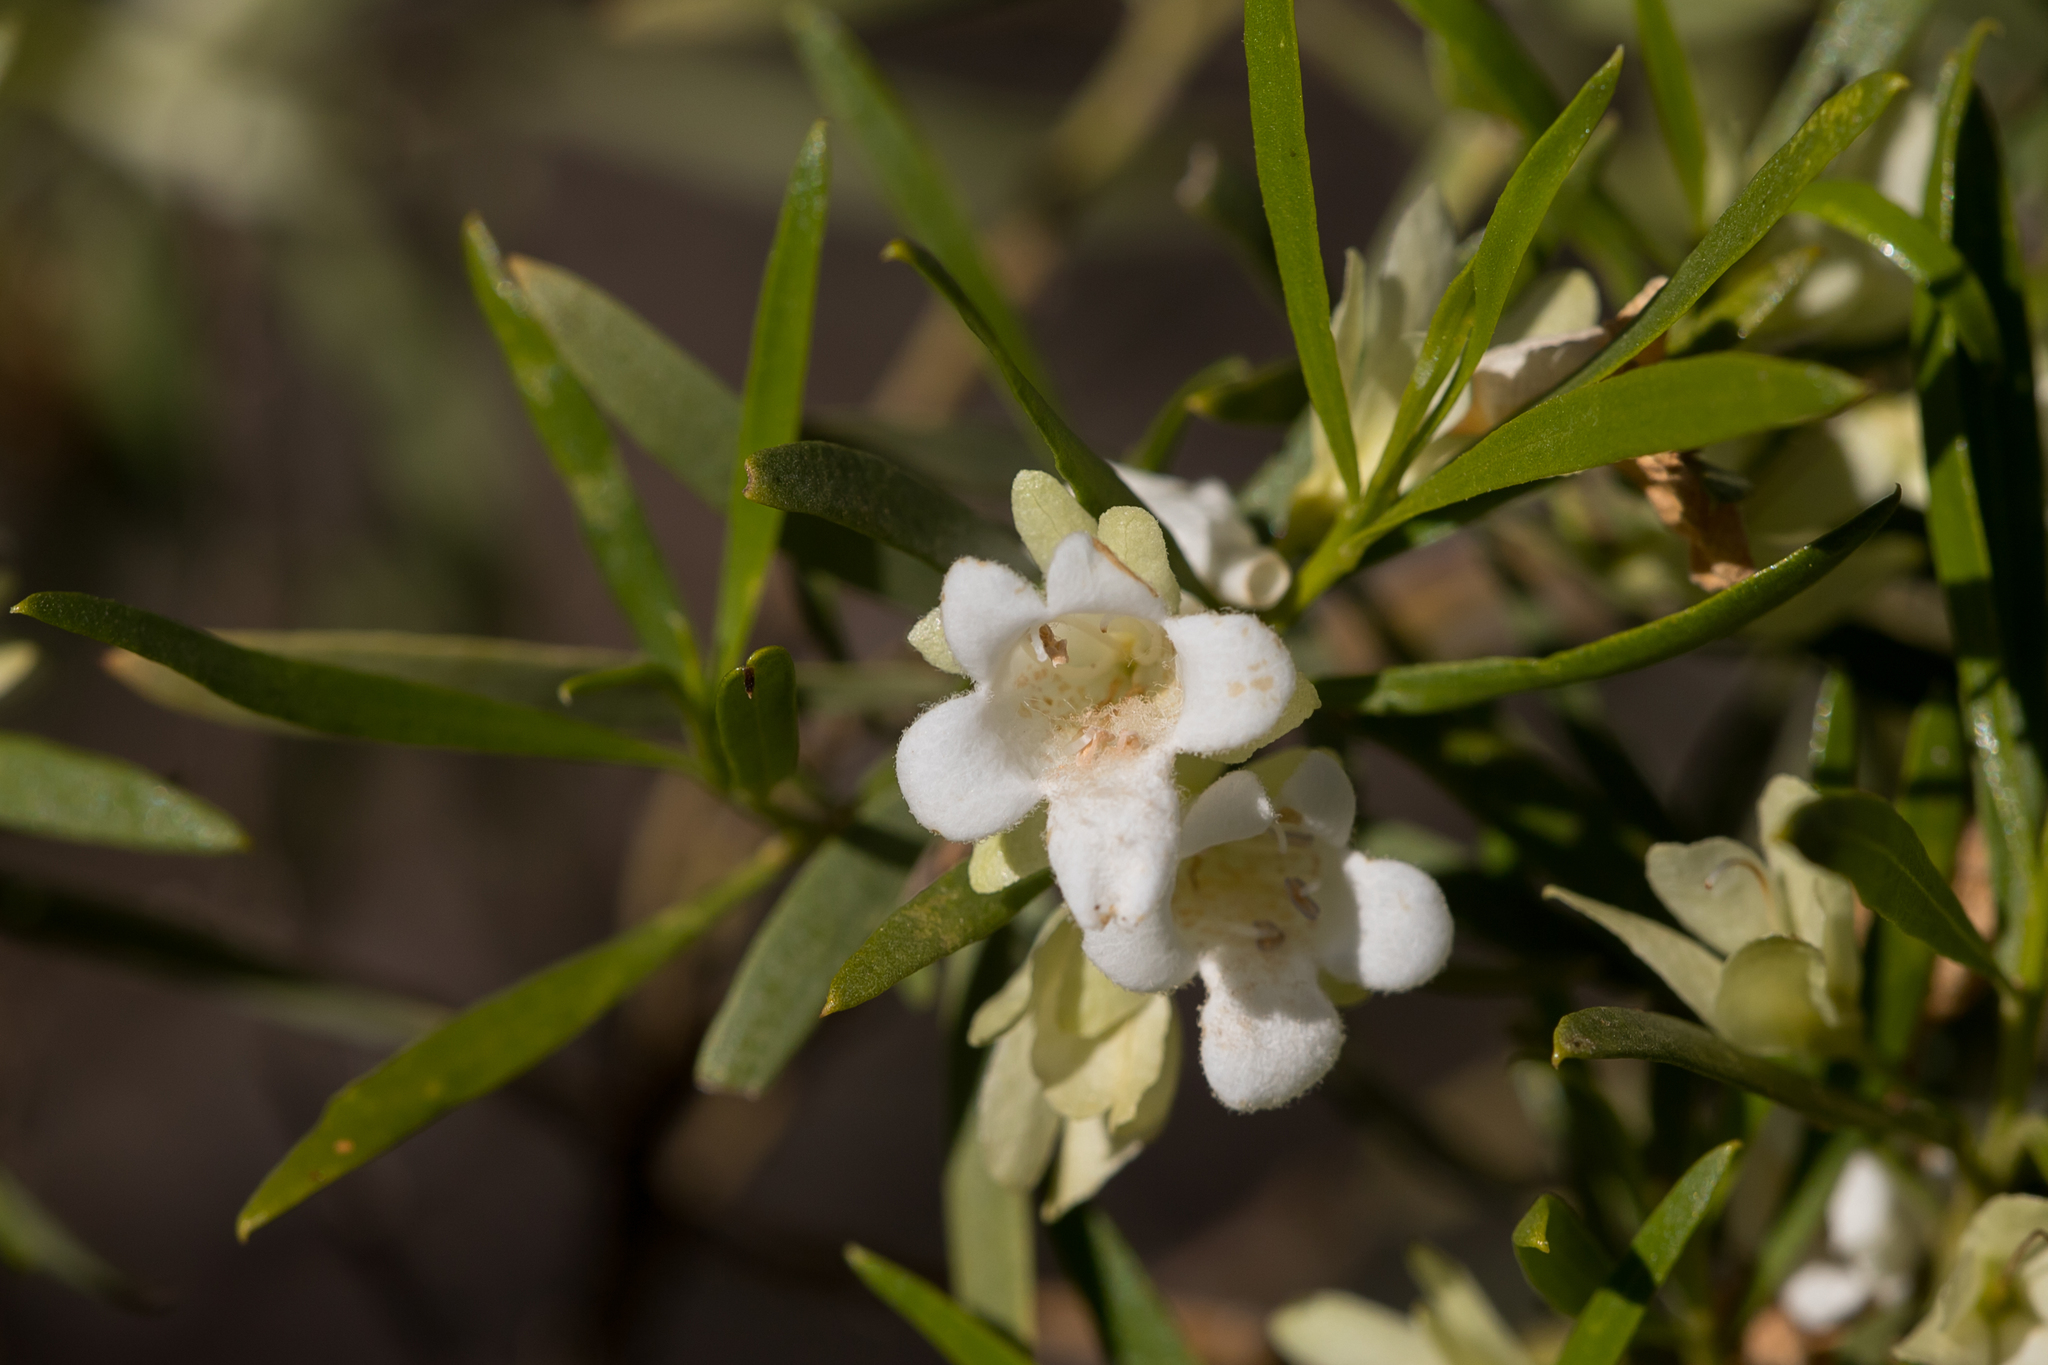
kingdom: Plantae
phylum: Tracheophyta
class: Magnoliopsida
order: Lamiales
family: Scrophulariaceae
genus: Eremophila
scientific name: Eremophila mitchellii
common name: Bastard-sandalwood
